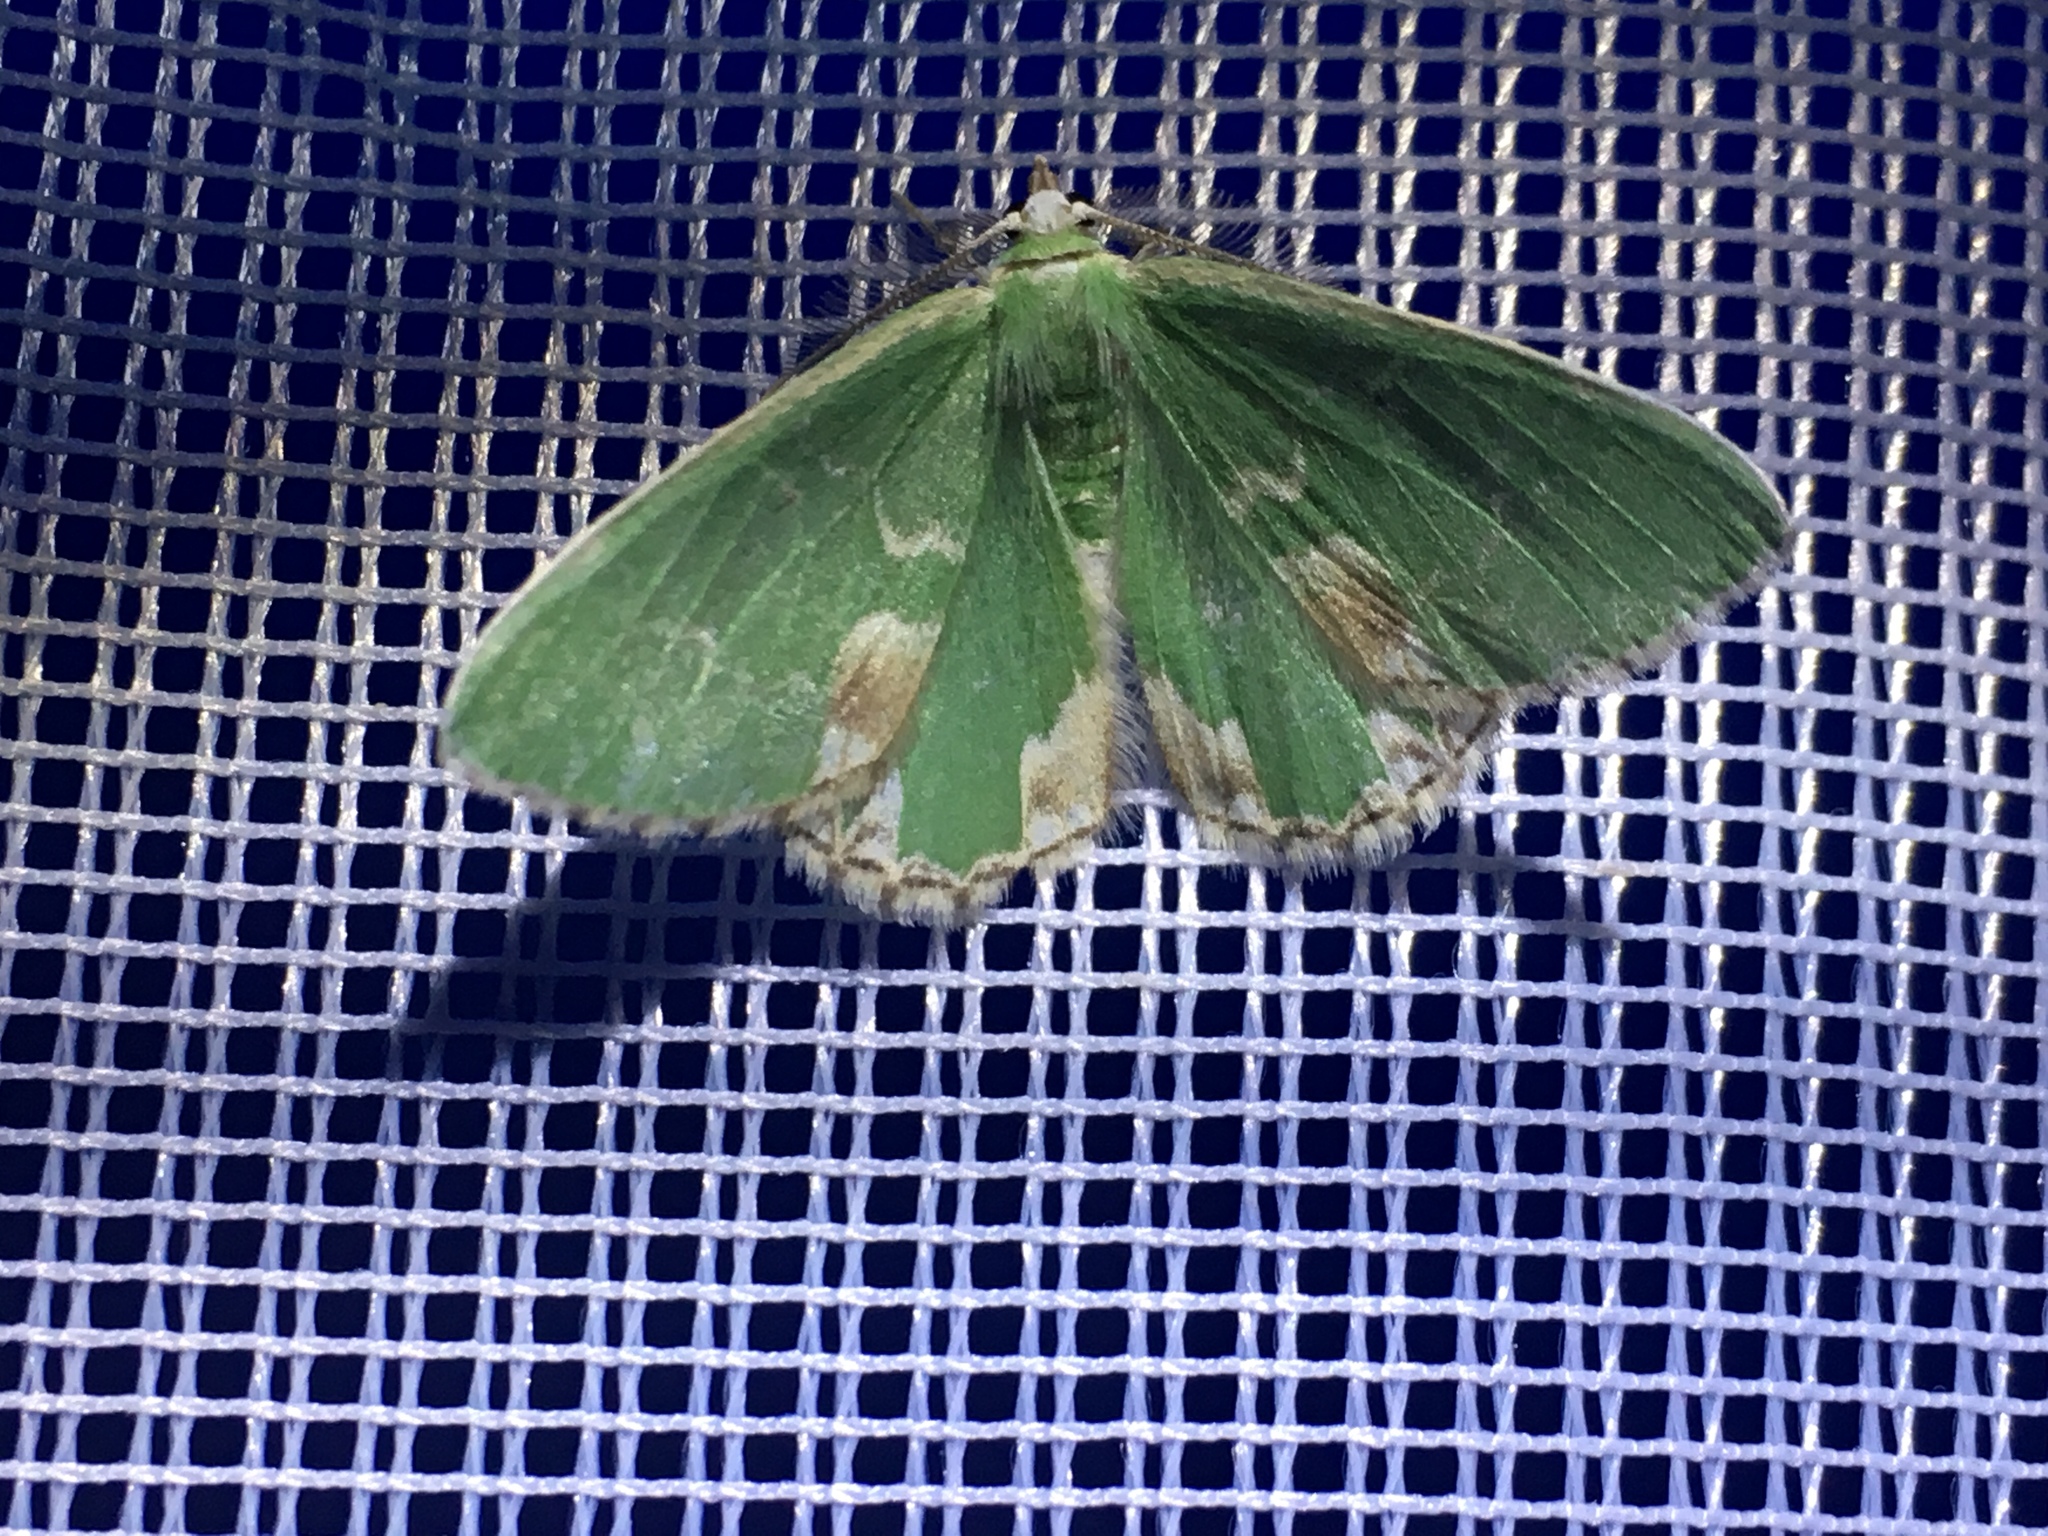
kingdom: Animalia
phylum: Arthropoda
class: Insecta
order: Lepidoptera
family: Geometridae
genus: Comibaena
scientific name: Comibaena bajularia
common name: Blotched emerald
